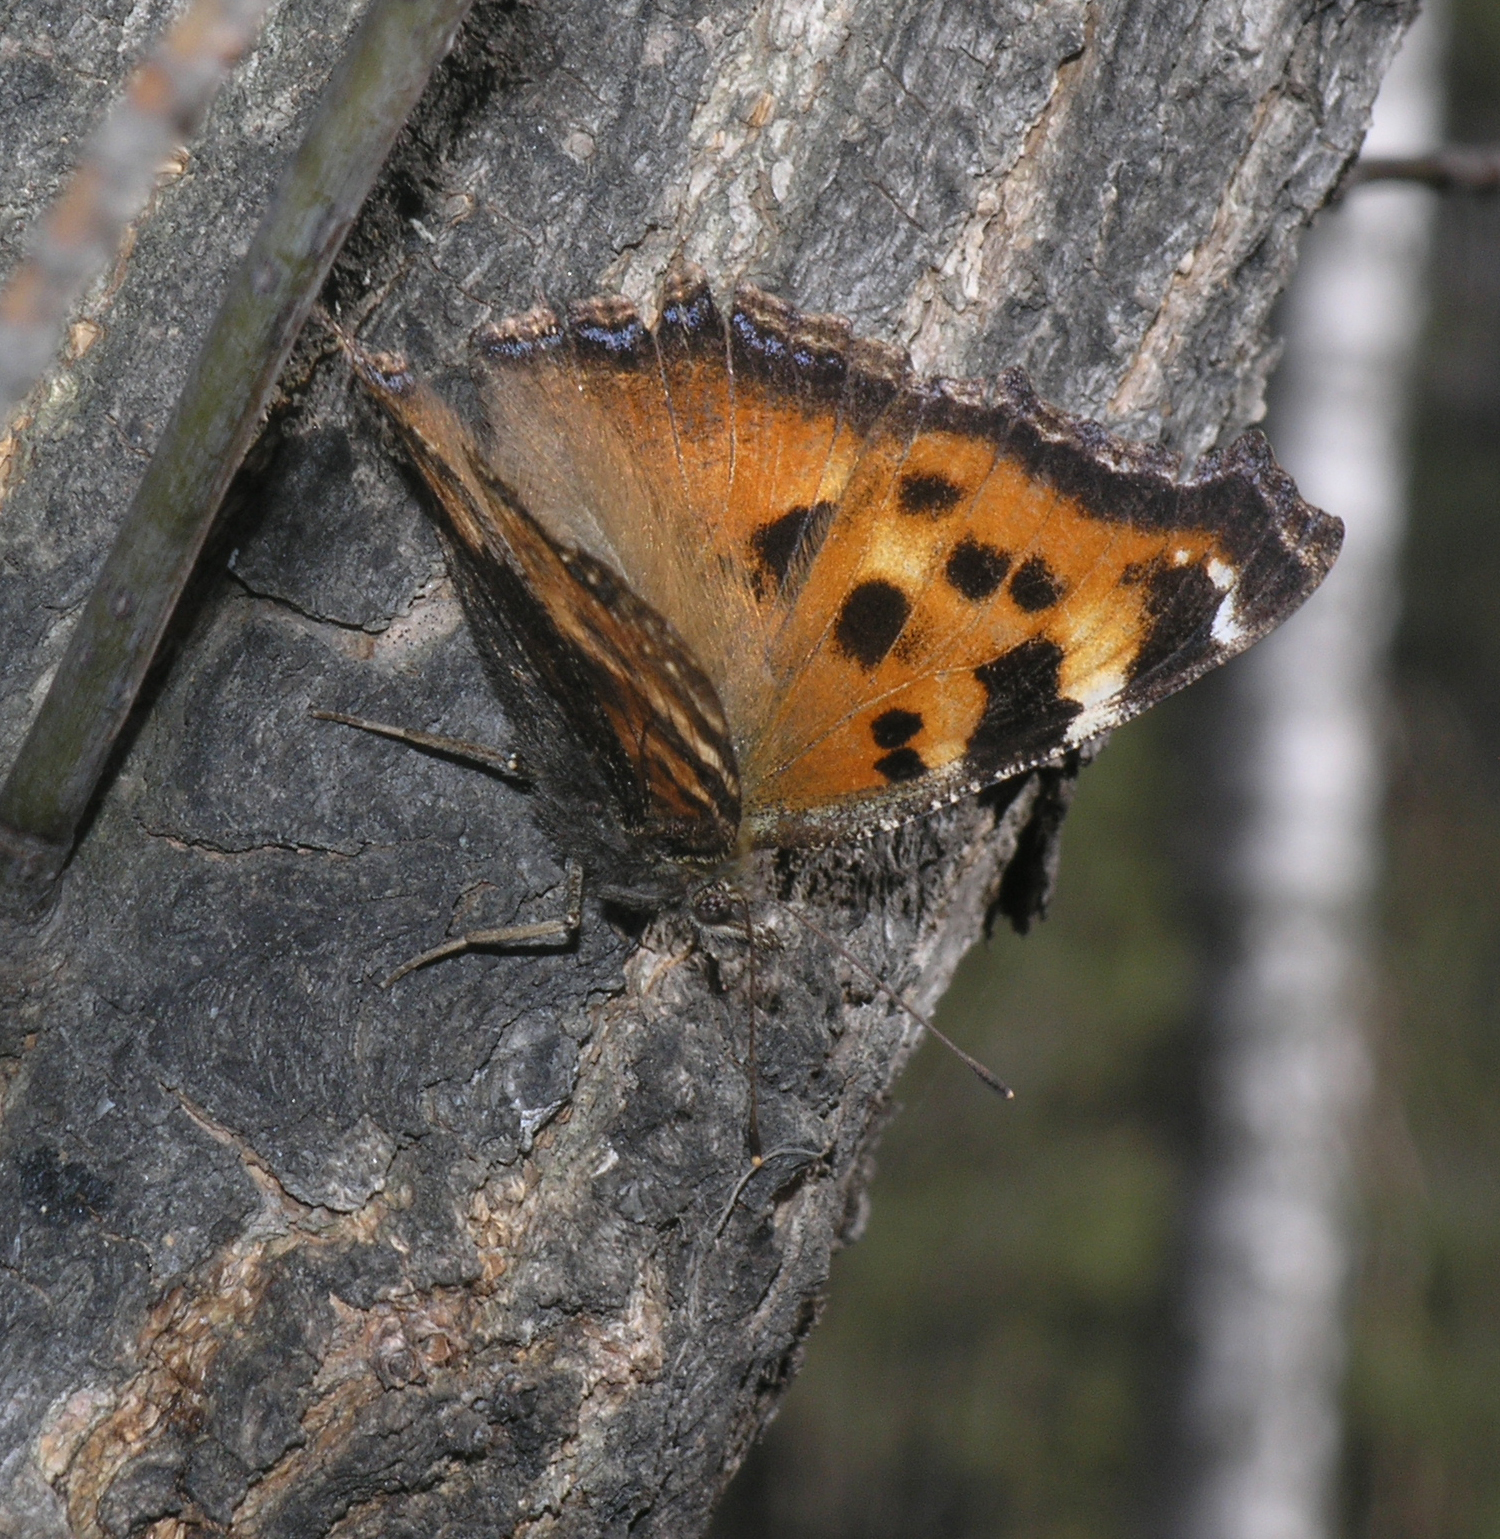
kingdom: Animalia
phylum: Arthropoda
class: Insecta
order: Lepidoptera
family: Nymphalidae
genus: Nymphalis
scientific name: Nymphalis xanthomelas
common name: Scarce tortoiseshell
